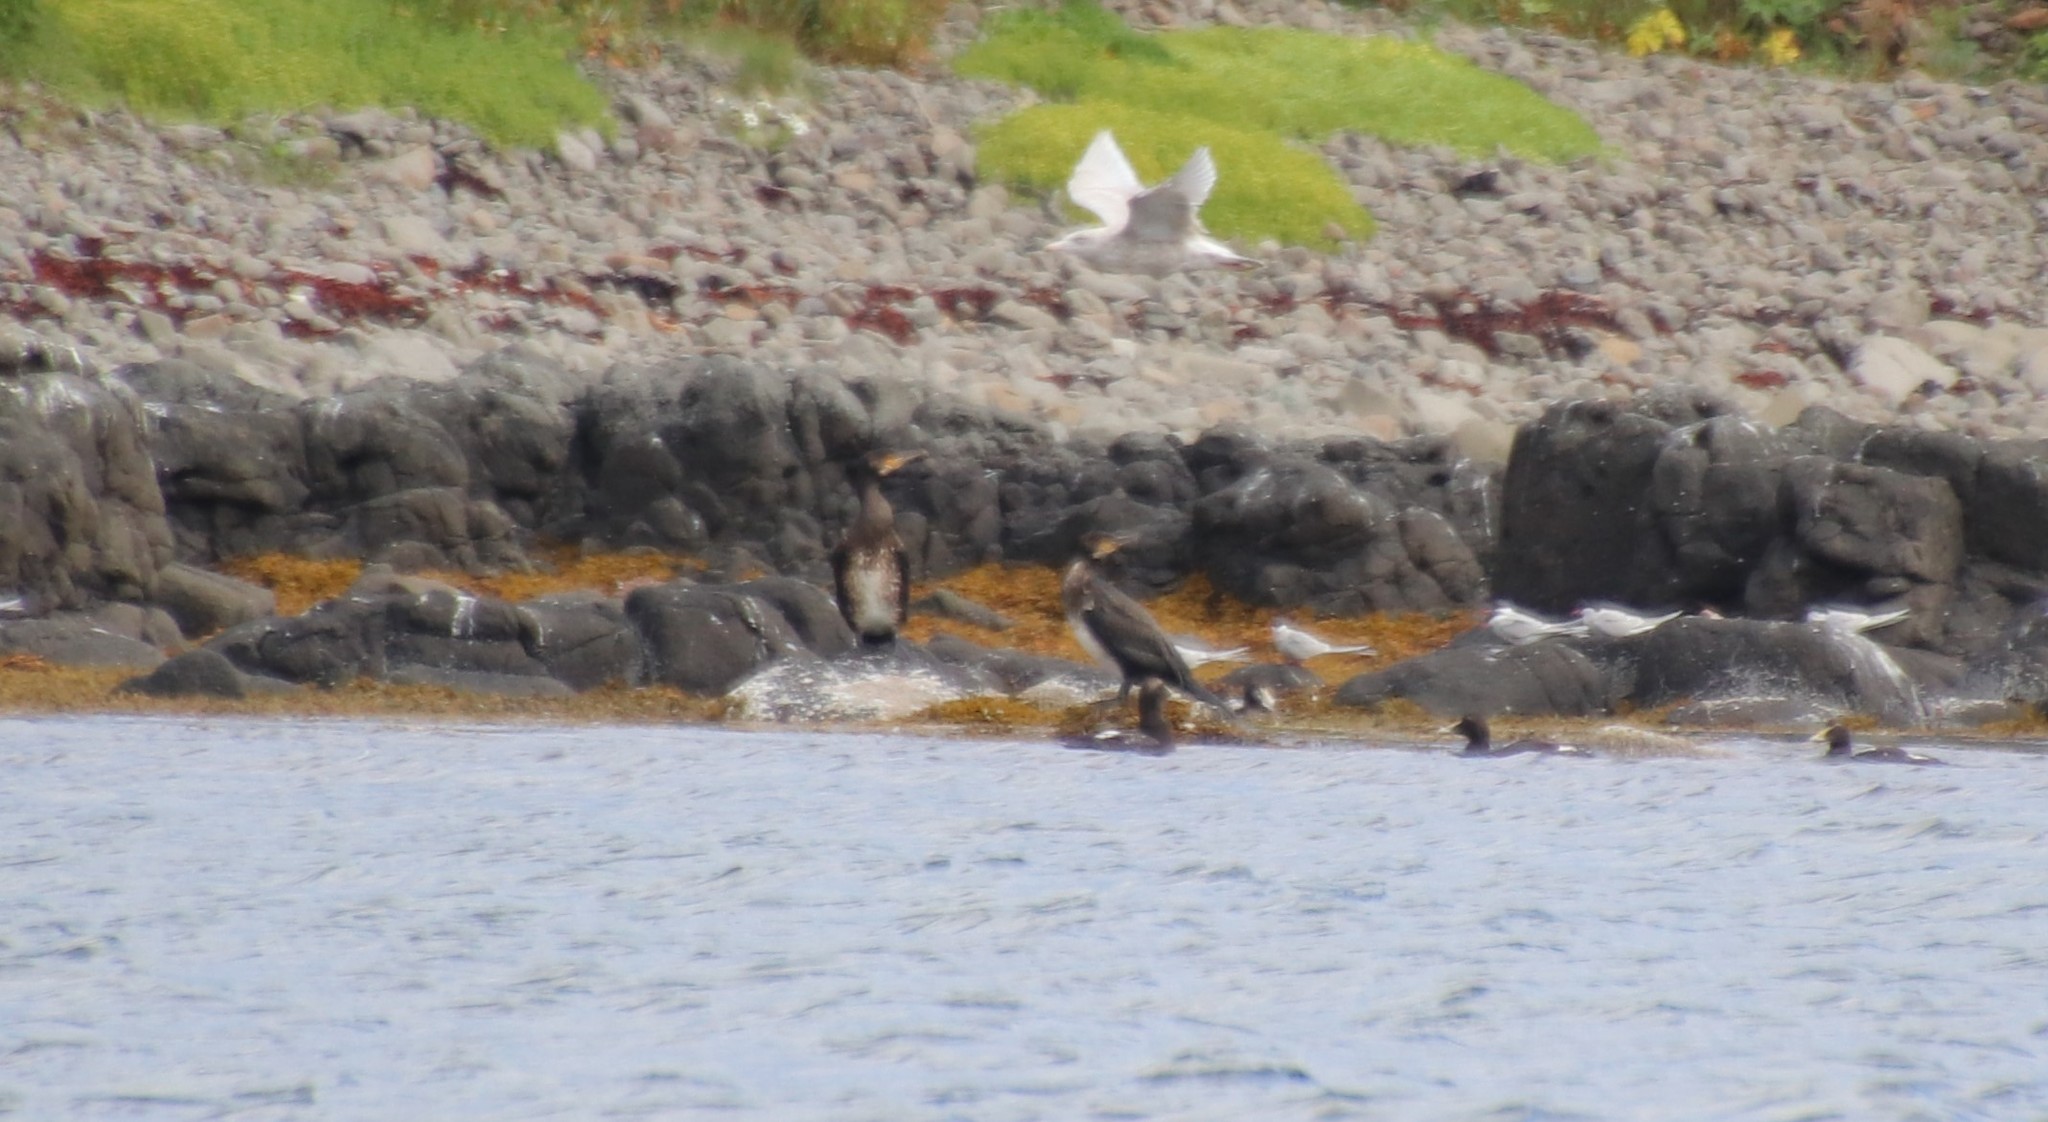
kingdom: Animalia
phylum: Chordata
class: Aves
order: Suliformes
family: Phalacrocoracidae
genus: Phalacrocorax
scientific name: Phalacrocorax carbo
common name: Great cormorant
